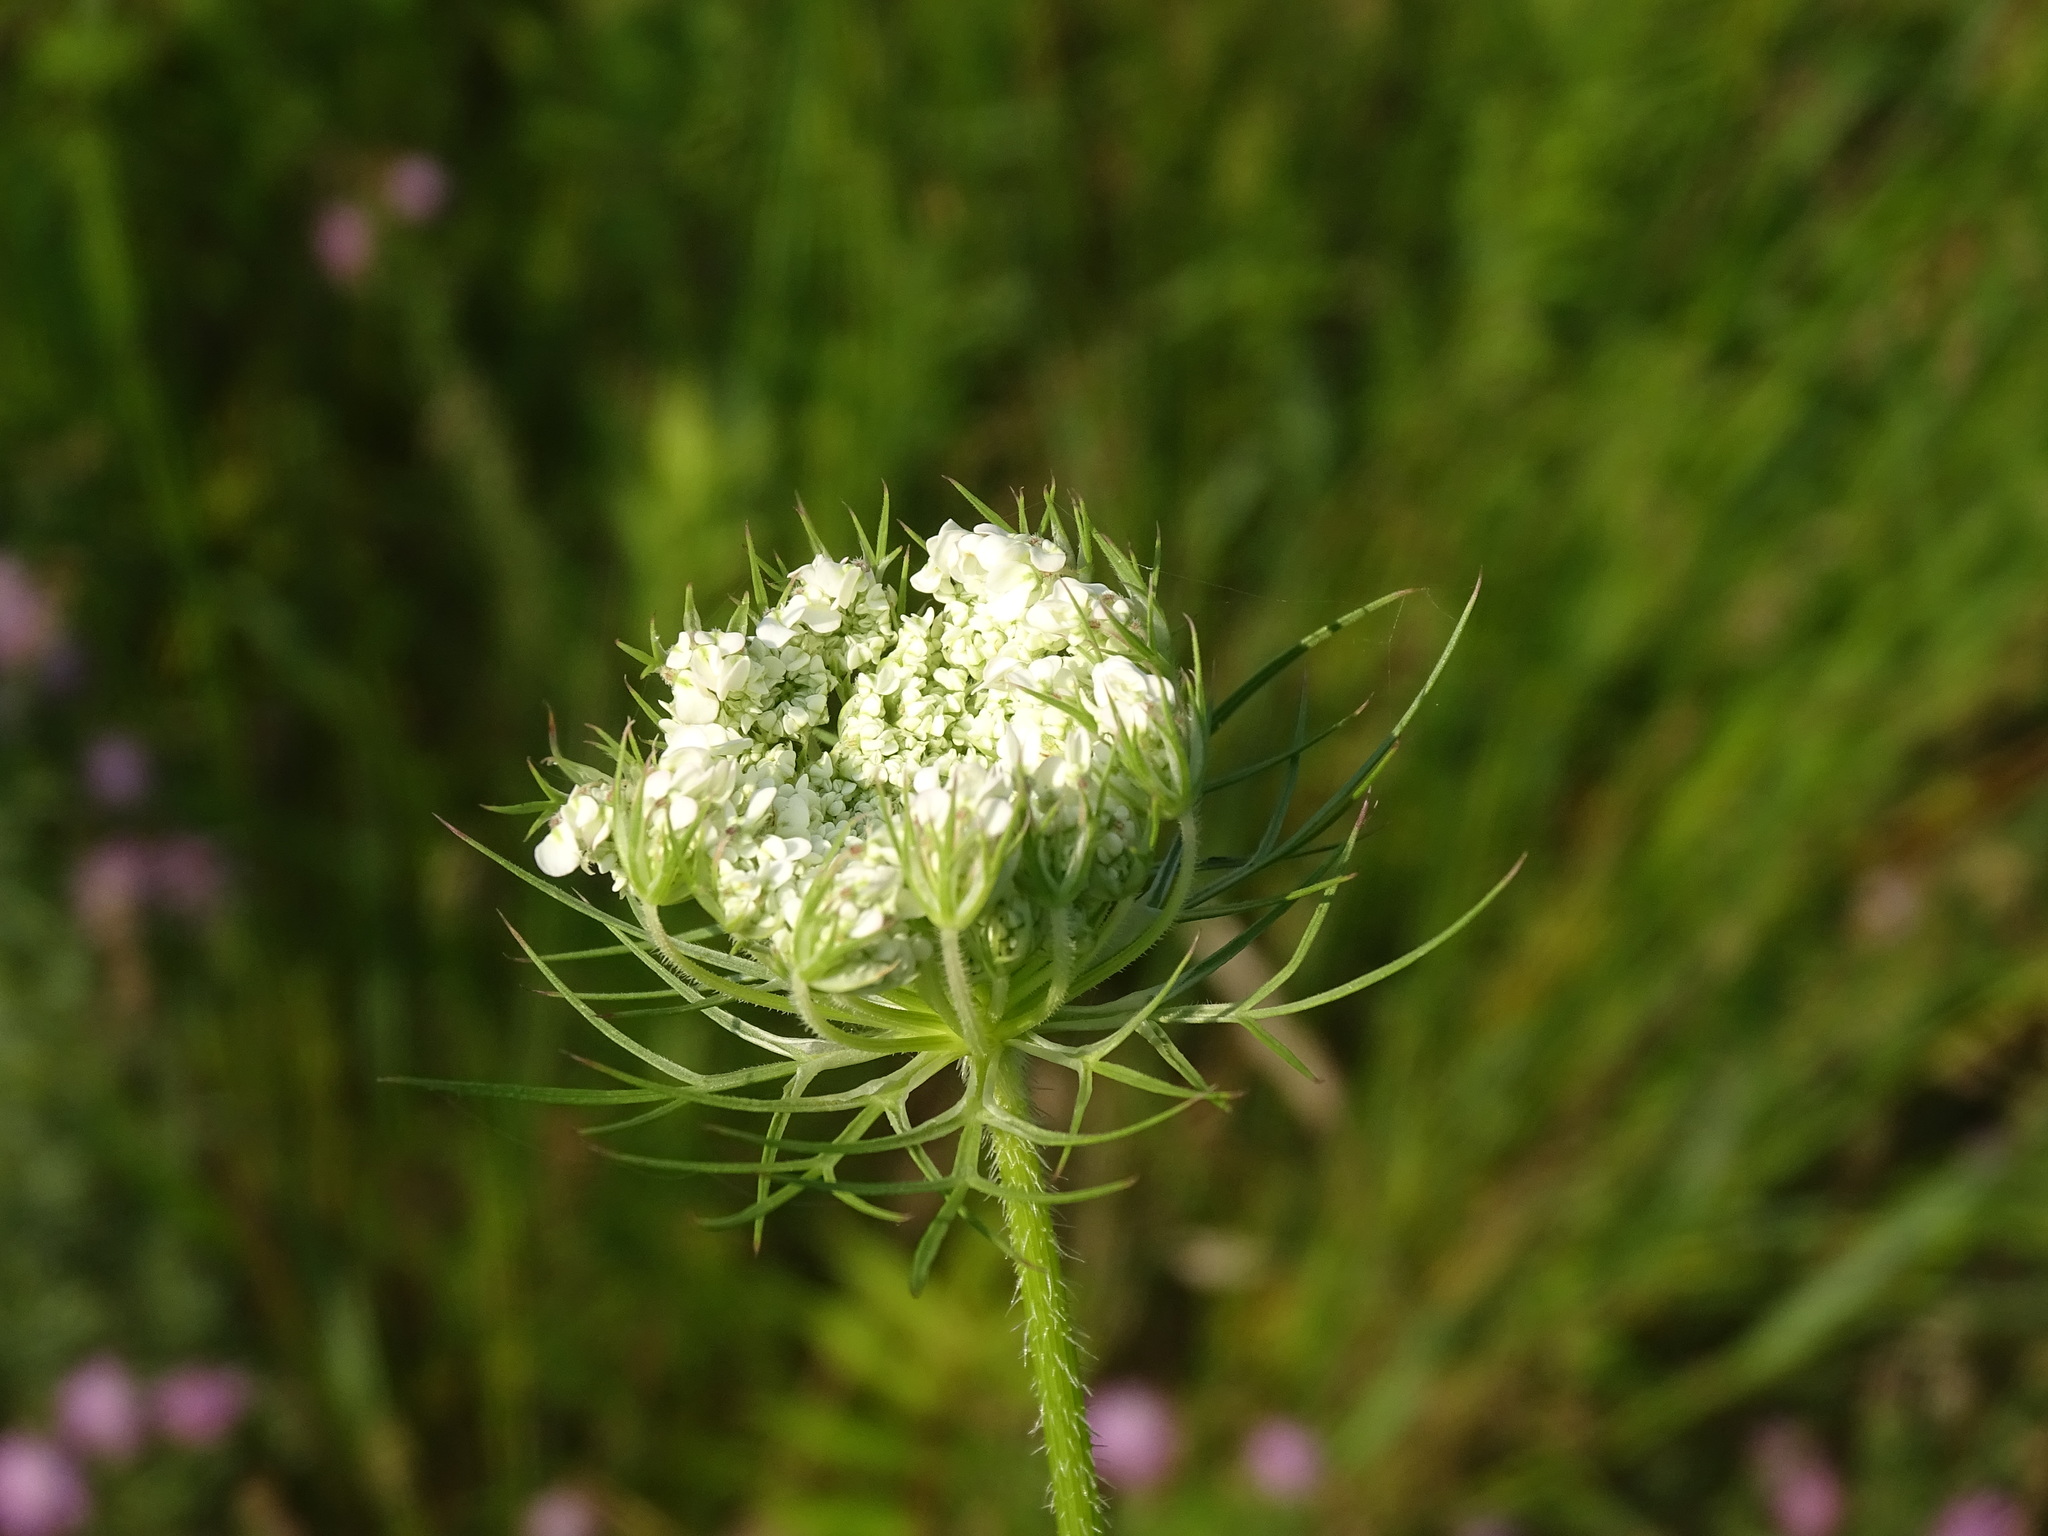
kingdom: Plantae
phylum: Tracheophyta
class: Magnoliopsida
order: Apiales
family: Apiaceae
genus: Daucus
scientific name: Daucus carota
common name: Wild carrot
